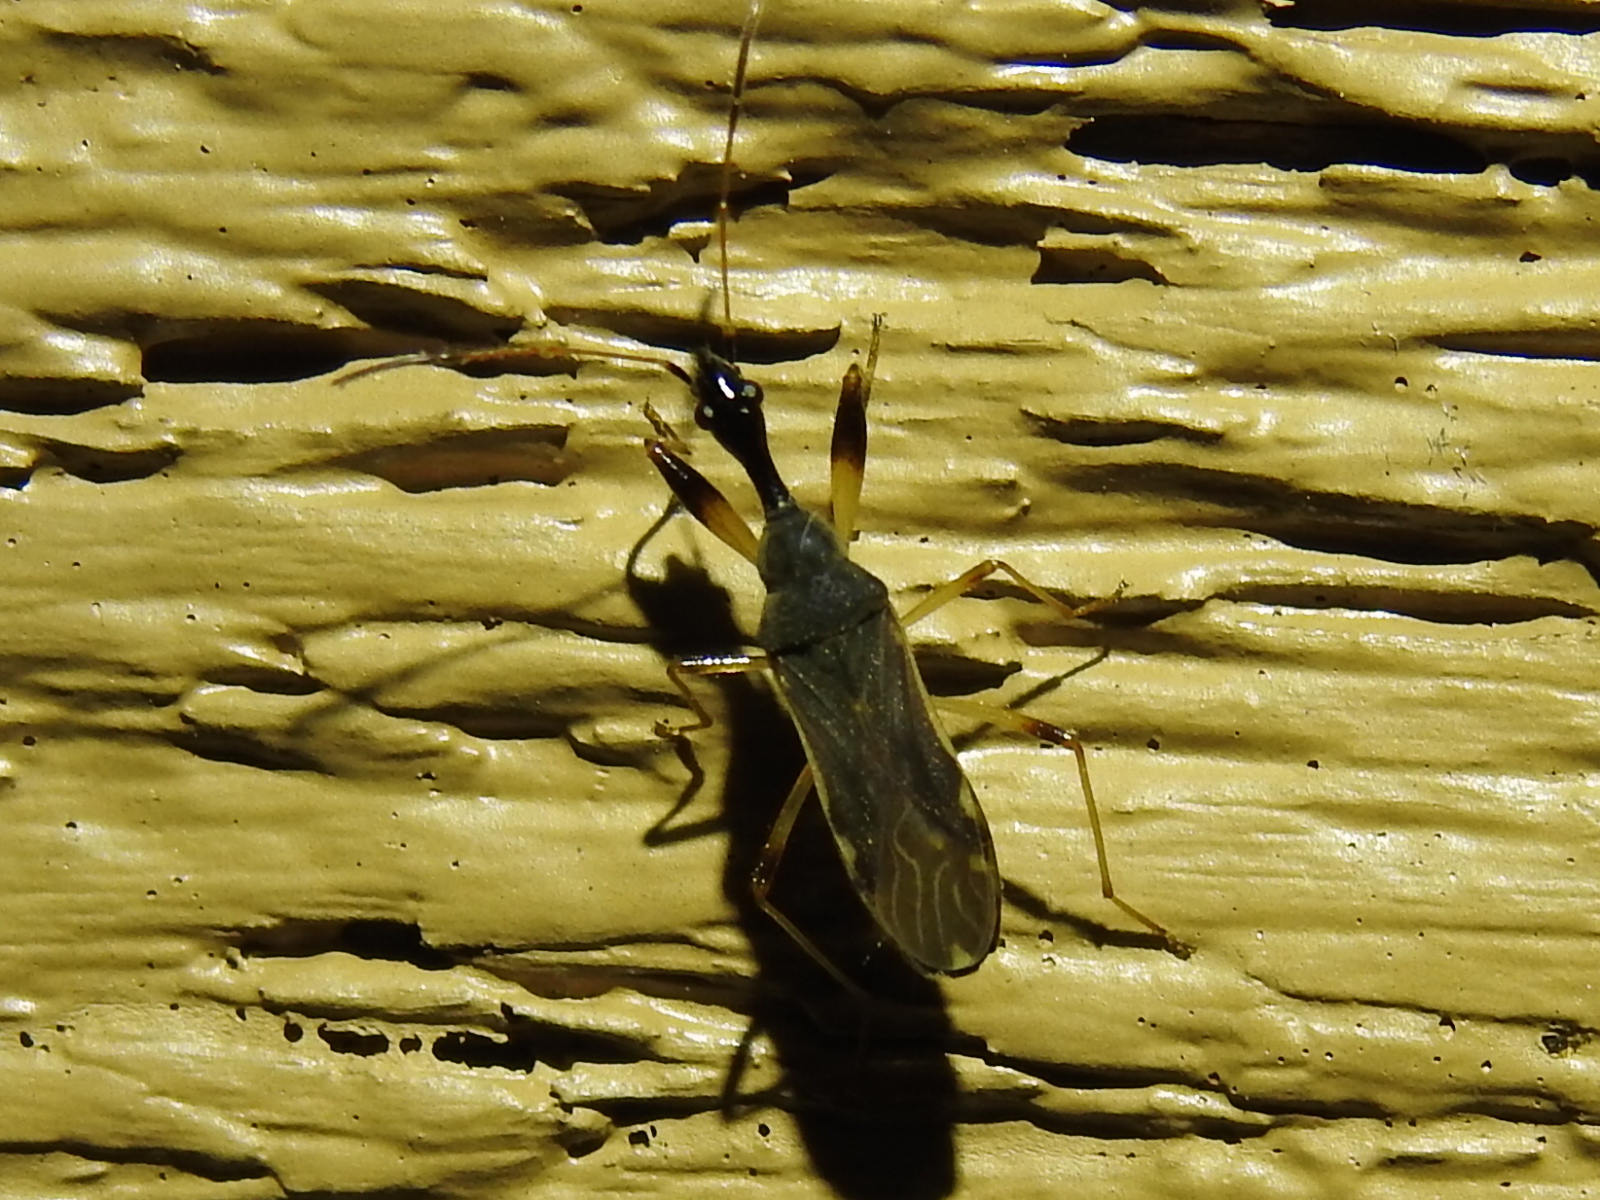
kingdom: Animalia
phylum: Arthropoda
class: Insecta
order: Hemiptera
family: Rhyparochromidae
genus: Myodocha
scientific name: Myodocha serripes
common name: Long-necked seed bug
